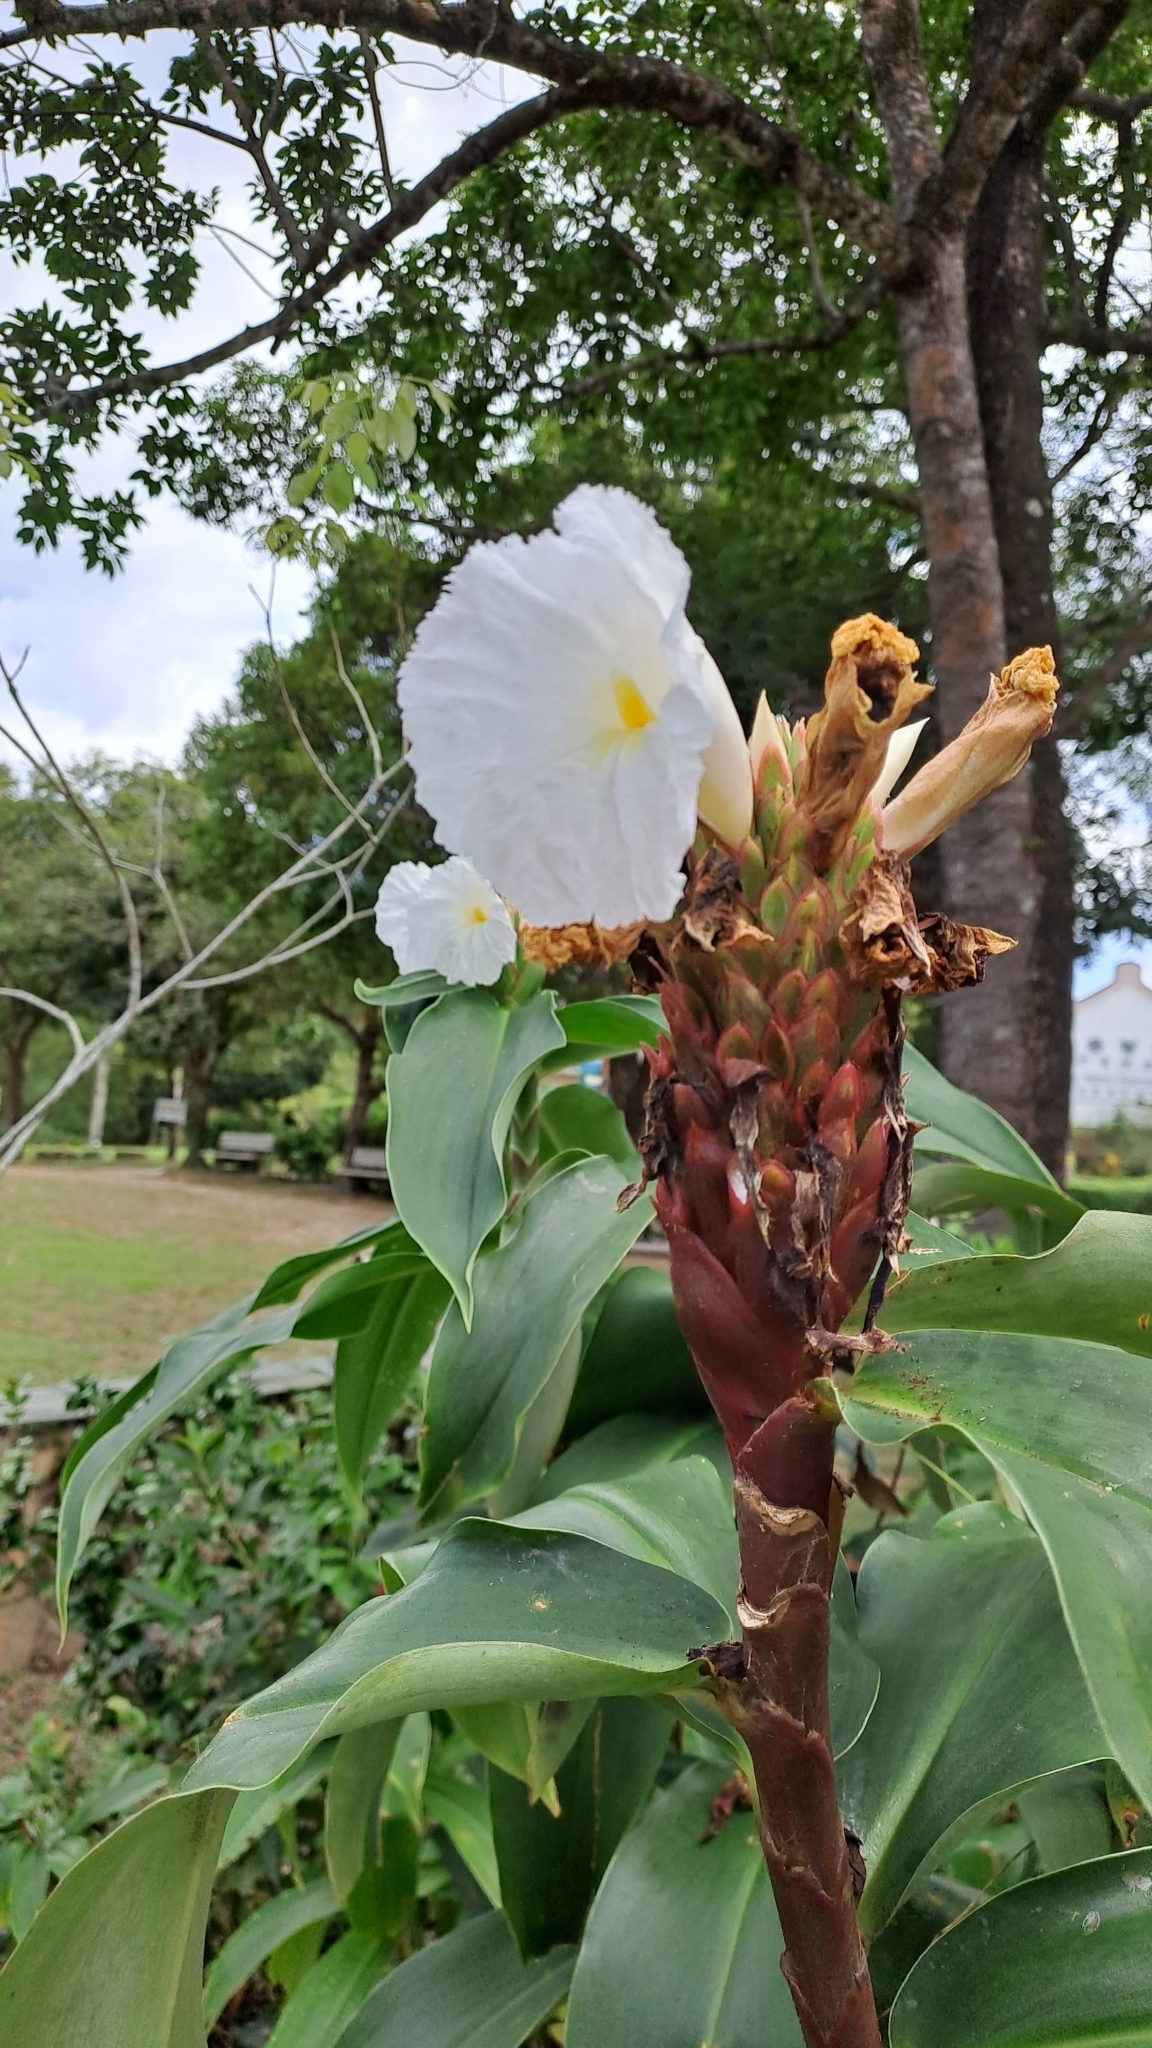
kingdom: Plantae
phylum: Tracheophyta
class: Liliopsida
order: Zingiberales
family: Costaceae
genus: Hellenia
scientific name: Hellenia speciosa
